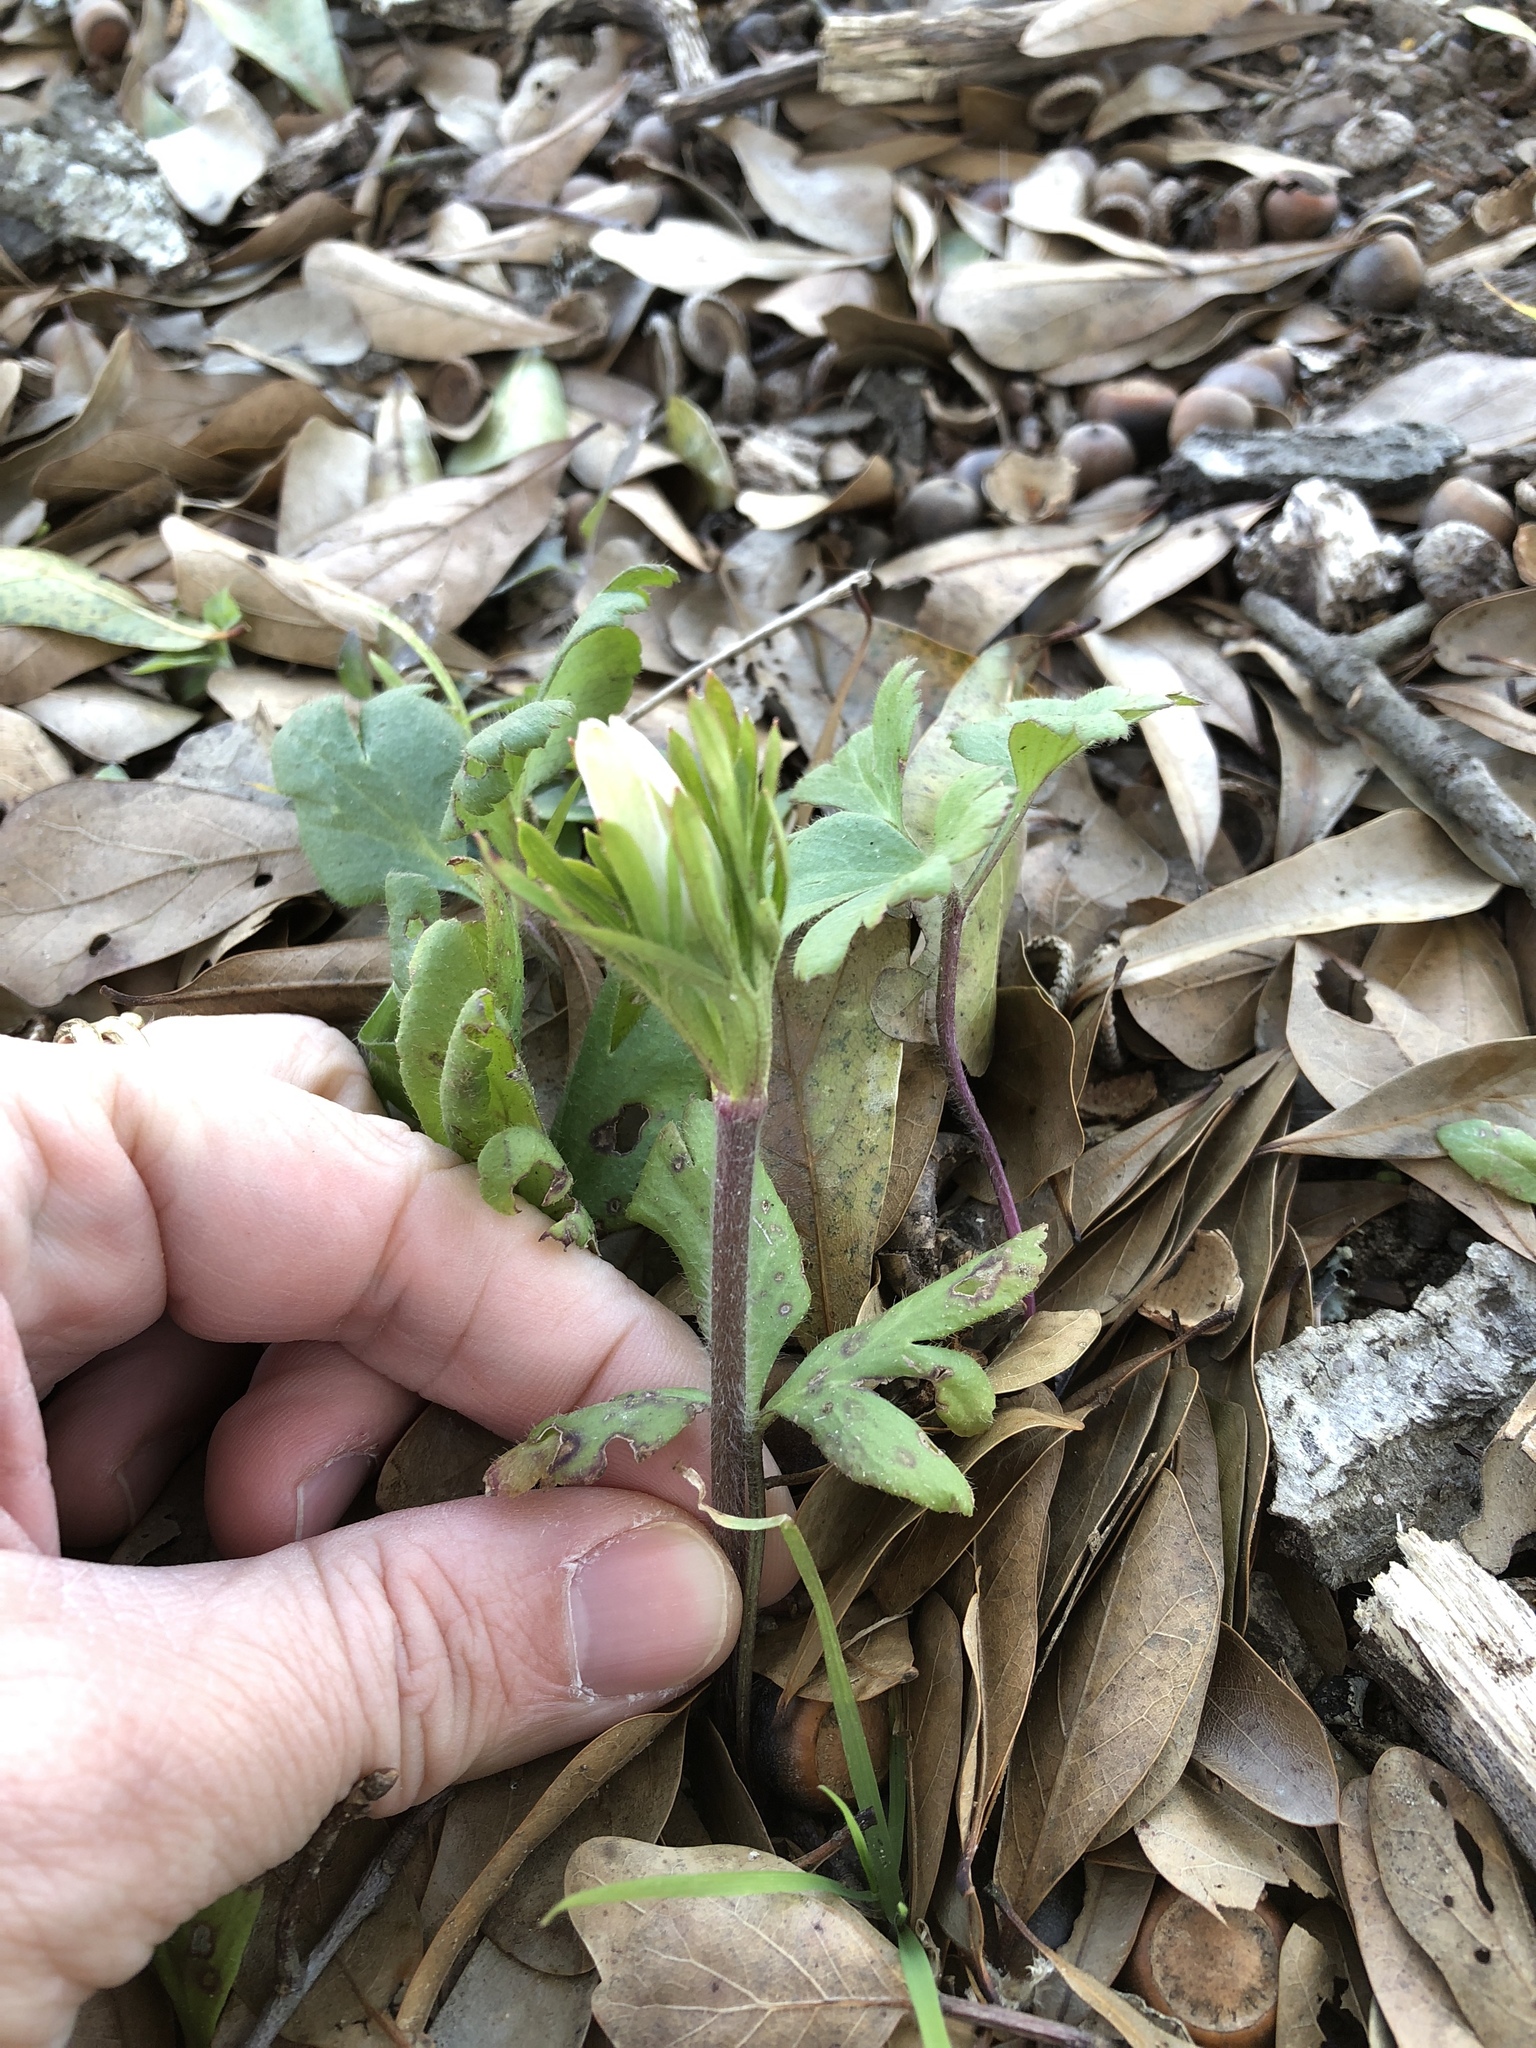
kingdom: Plantae
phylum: Tracheophyta
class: Magnoliopsida
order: Ranunculales
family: Ranunculaceae
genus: Anemone
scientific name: Anemone berlandieri
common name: Ten-petal anemone
